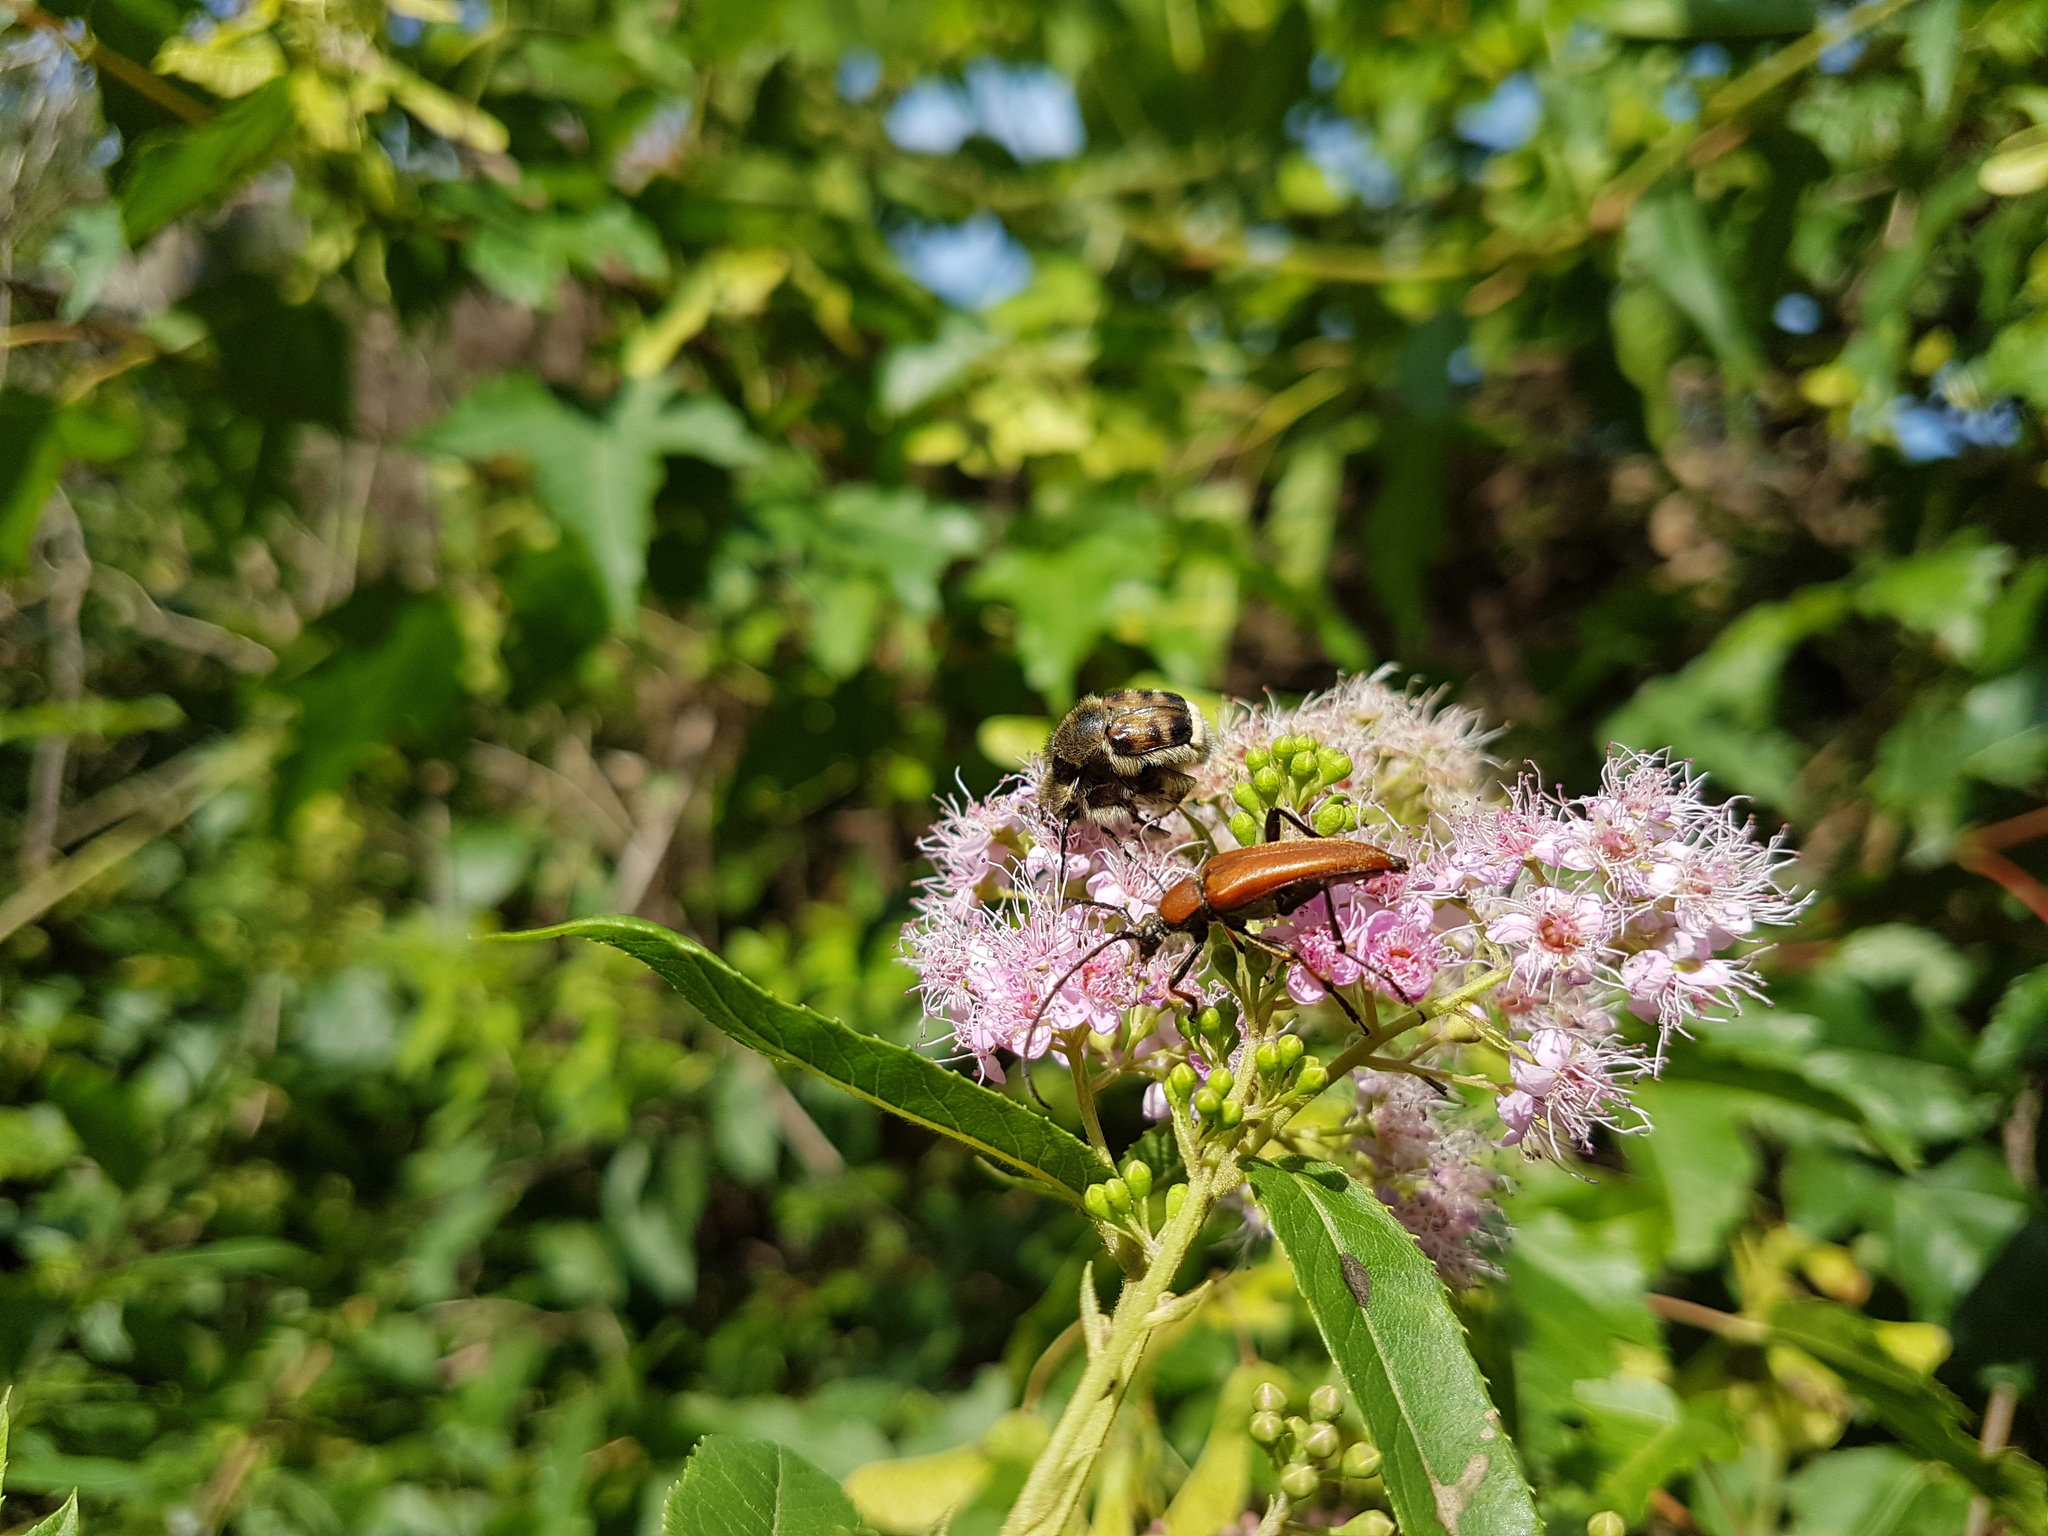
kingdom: Animalia
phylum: Arthropoda
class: Insecta
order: Coleoptera
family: Scarabaeidae
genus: Lasiotrichius
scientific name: Lasiotrichius succinctus
